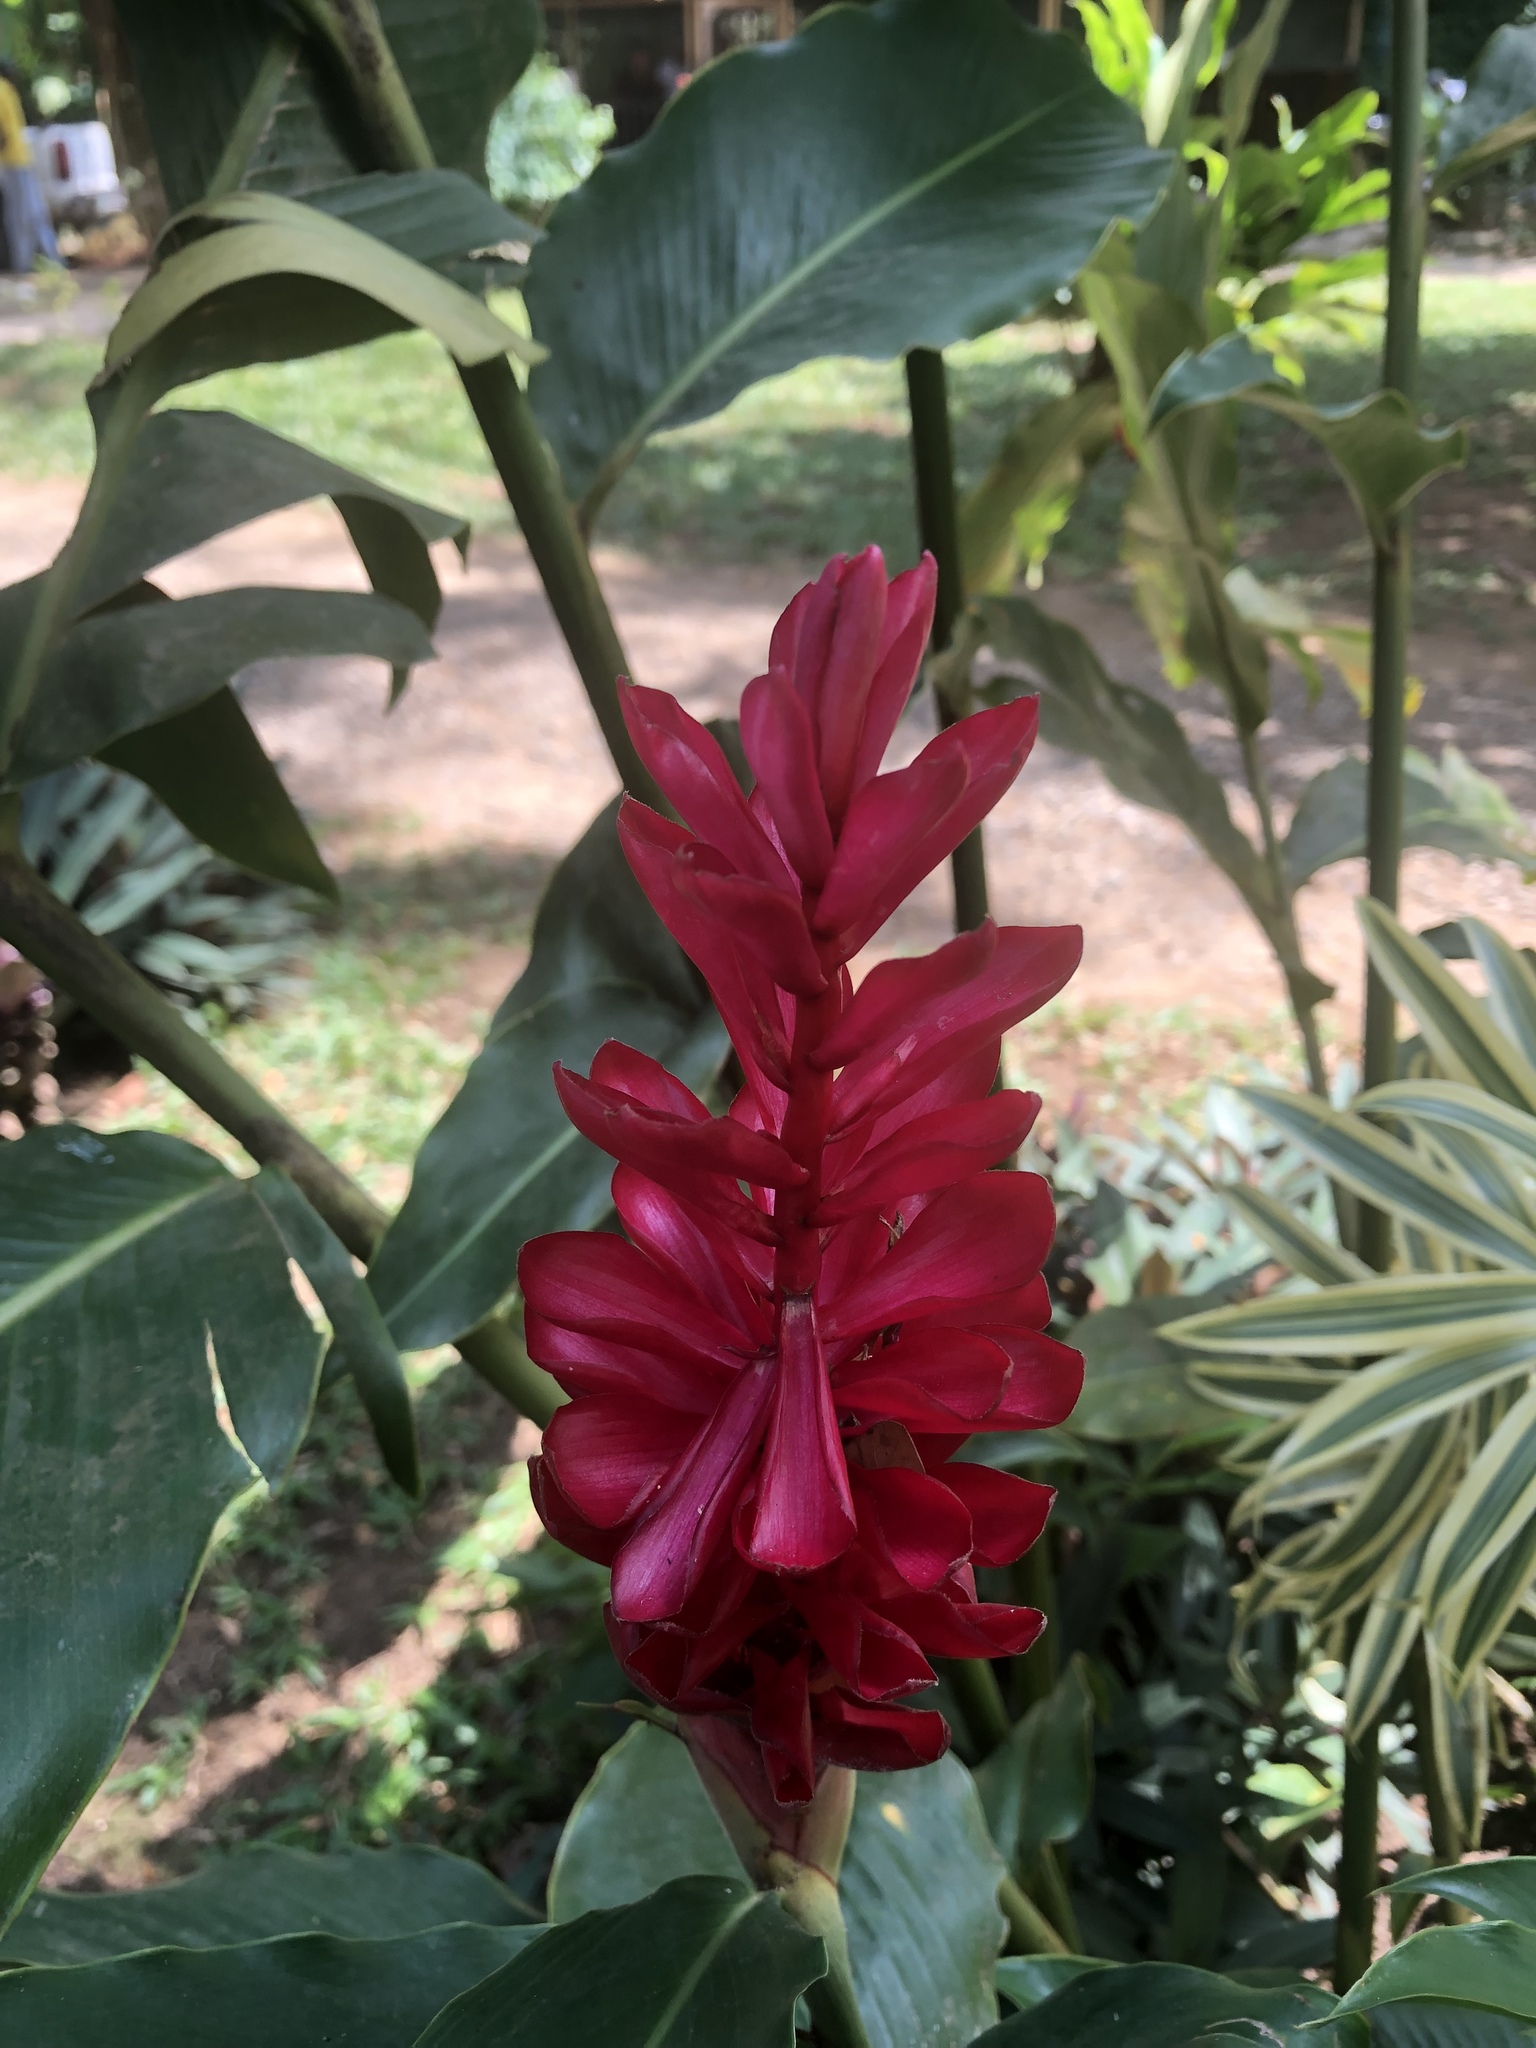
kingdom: Plantae
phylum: Tracheophyta
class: Liliopsida
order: Zingiberales
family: Zingiberaceae
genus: Alpinia
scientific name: Alpinia purpurata
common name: Red ginger
